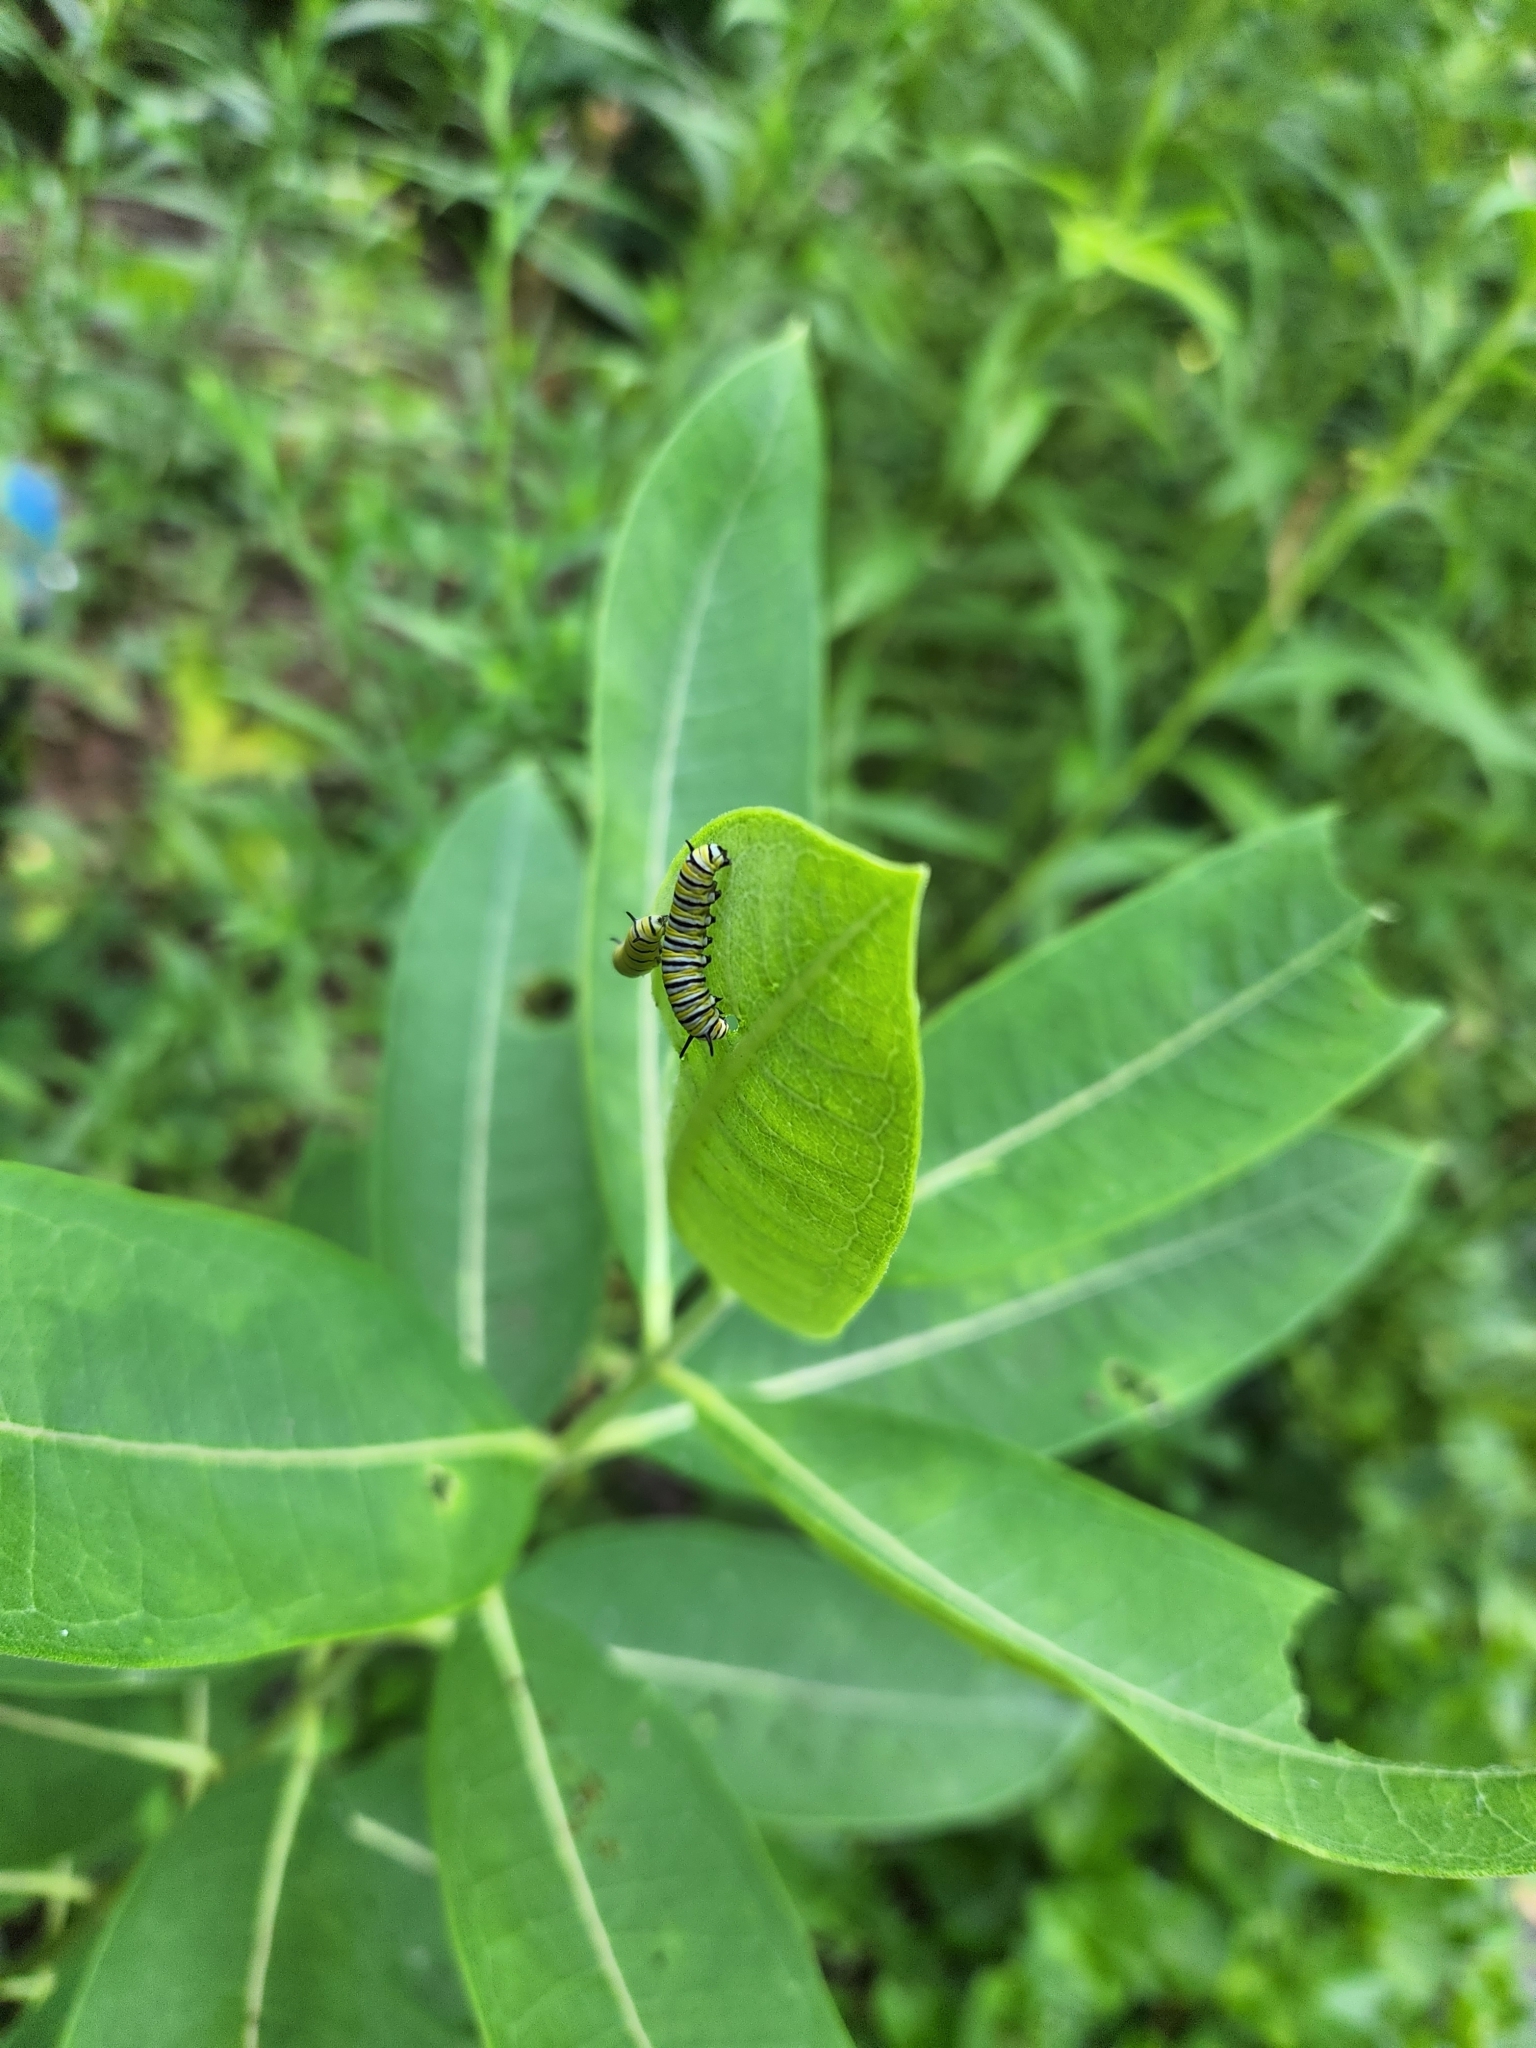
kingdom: Animalia
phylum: Arthropoda
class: Insecta
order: Lepidoptera
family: Nymphalidae
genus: Danaus
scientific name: Danaus plexippus
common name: Monarch
